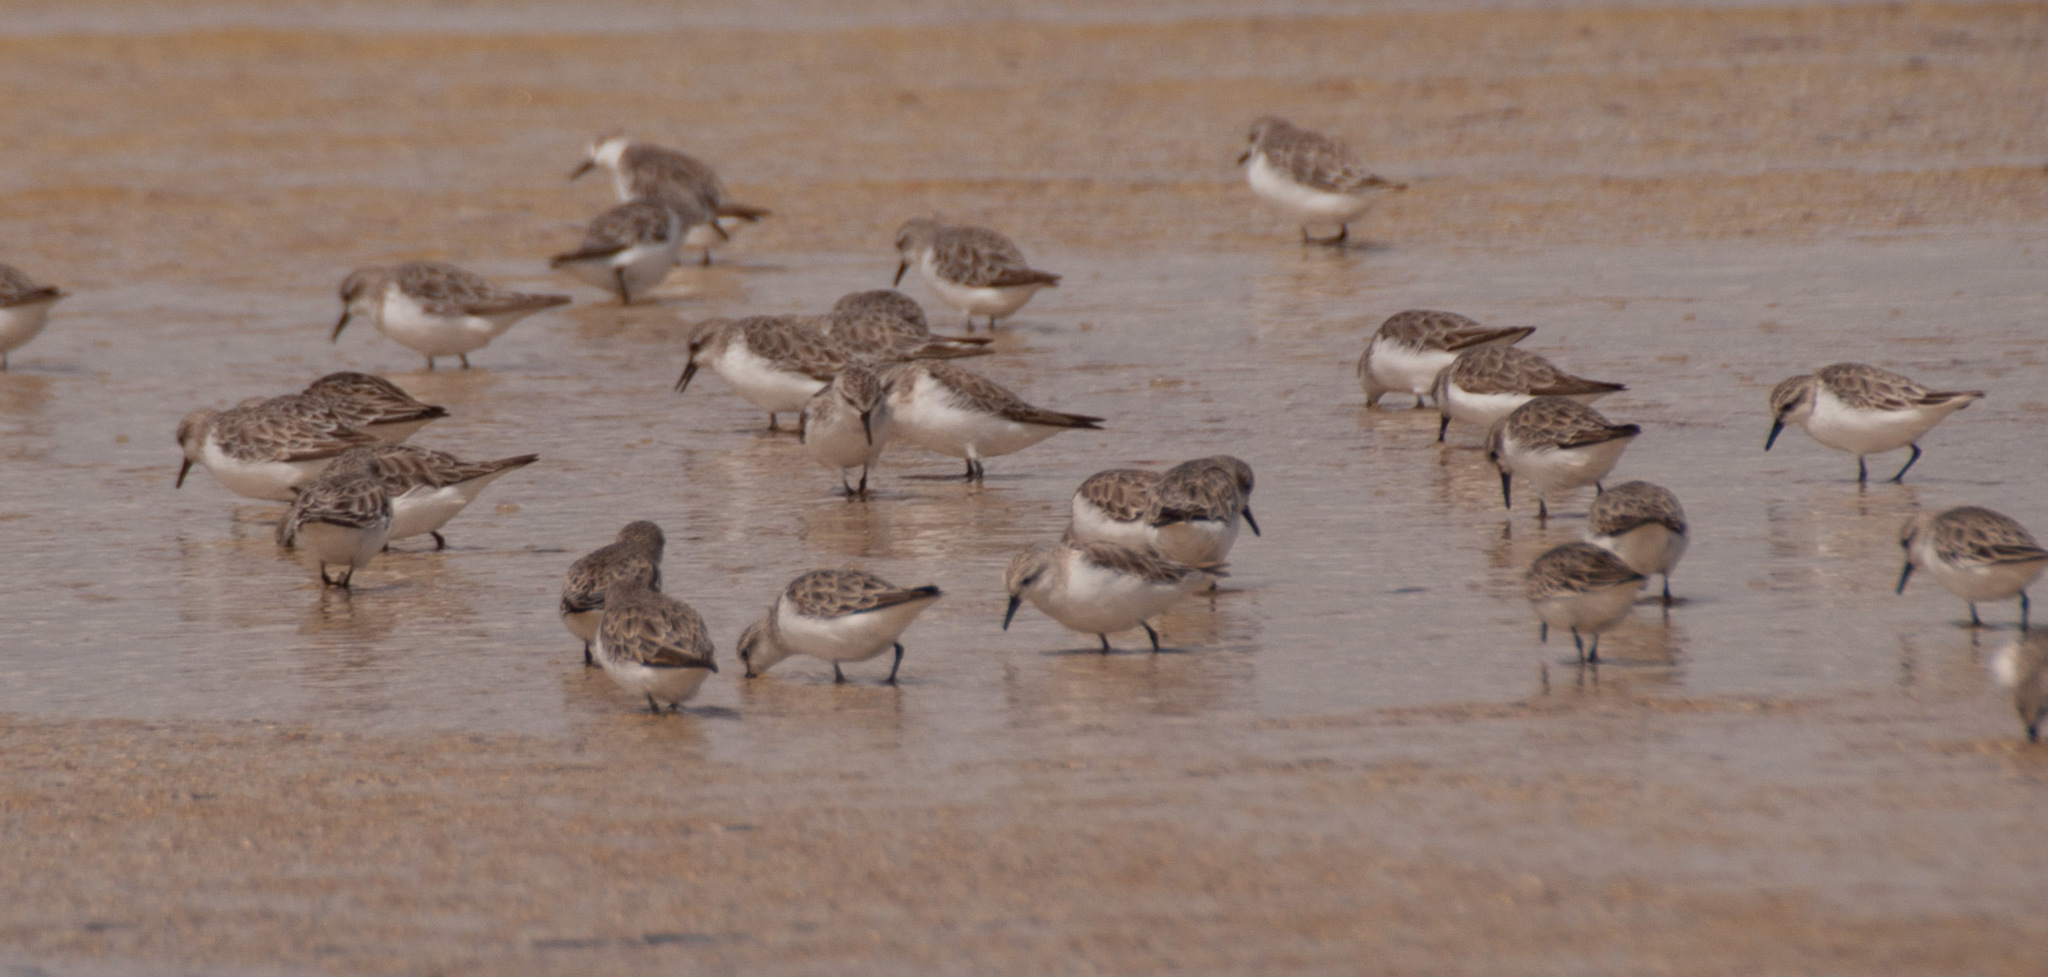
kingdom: Animalia
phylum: Chordata
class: Aves
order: Charadriiformes
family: Scolopacidae
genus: Calidris
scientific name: Calidris ruficollis
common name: Red-necked stint
